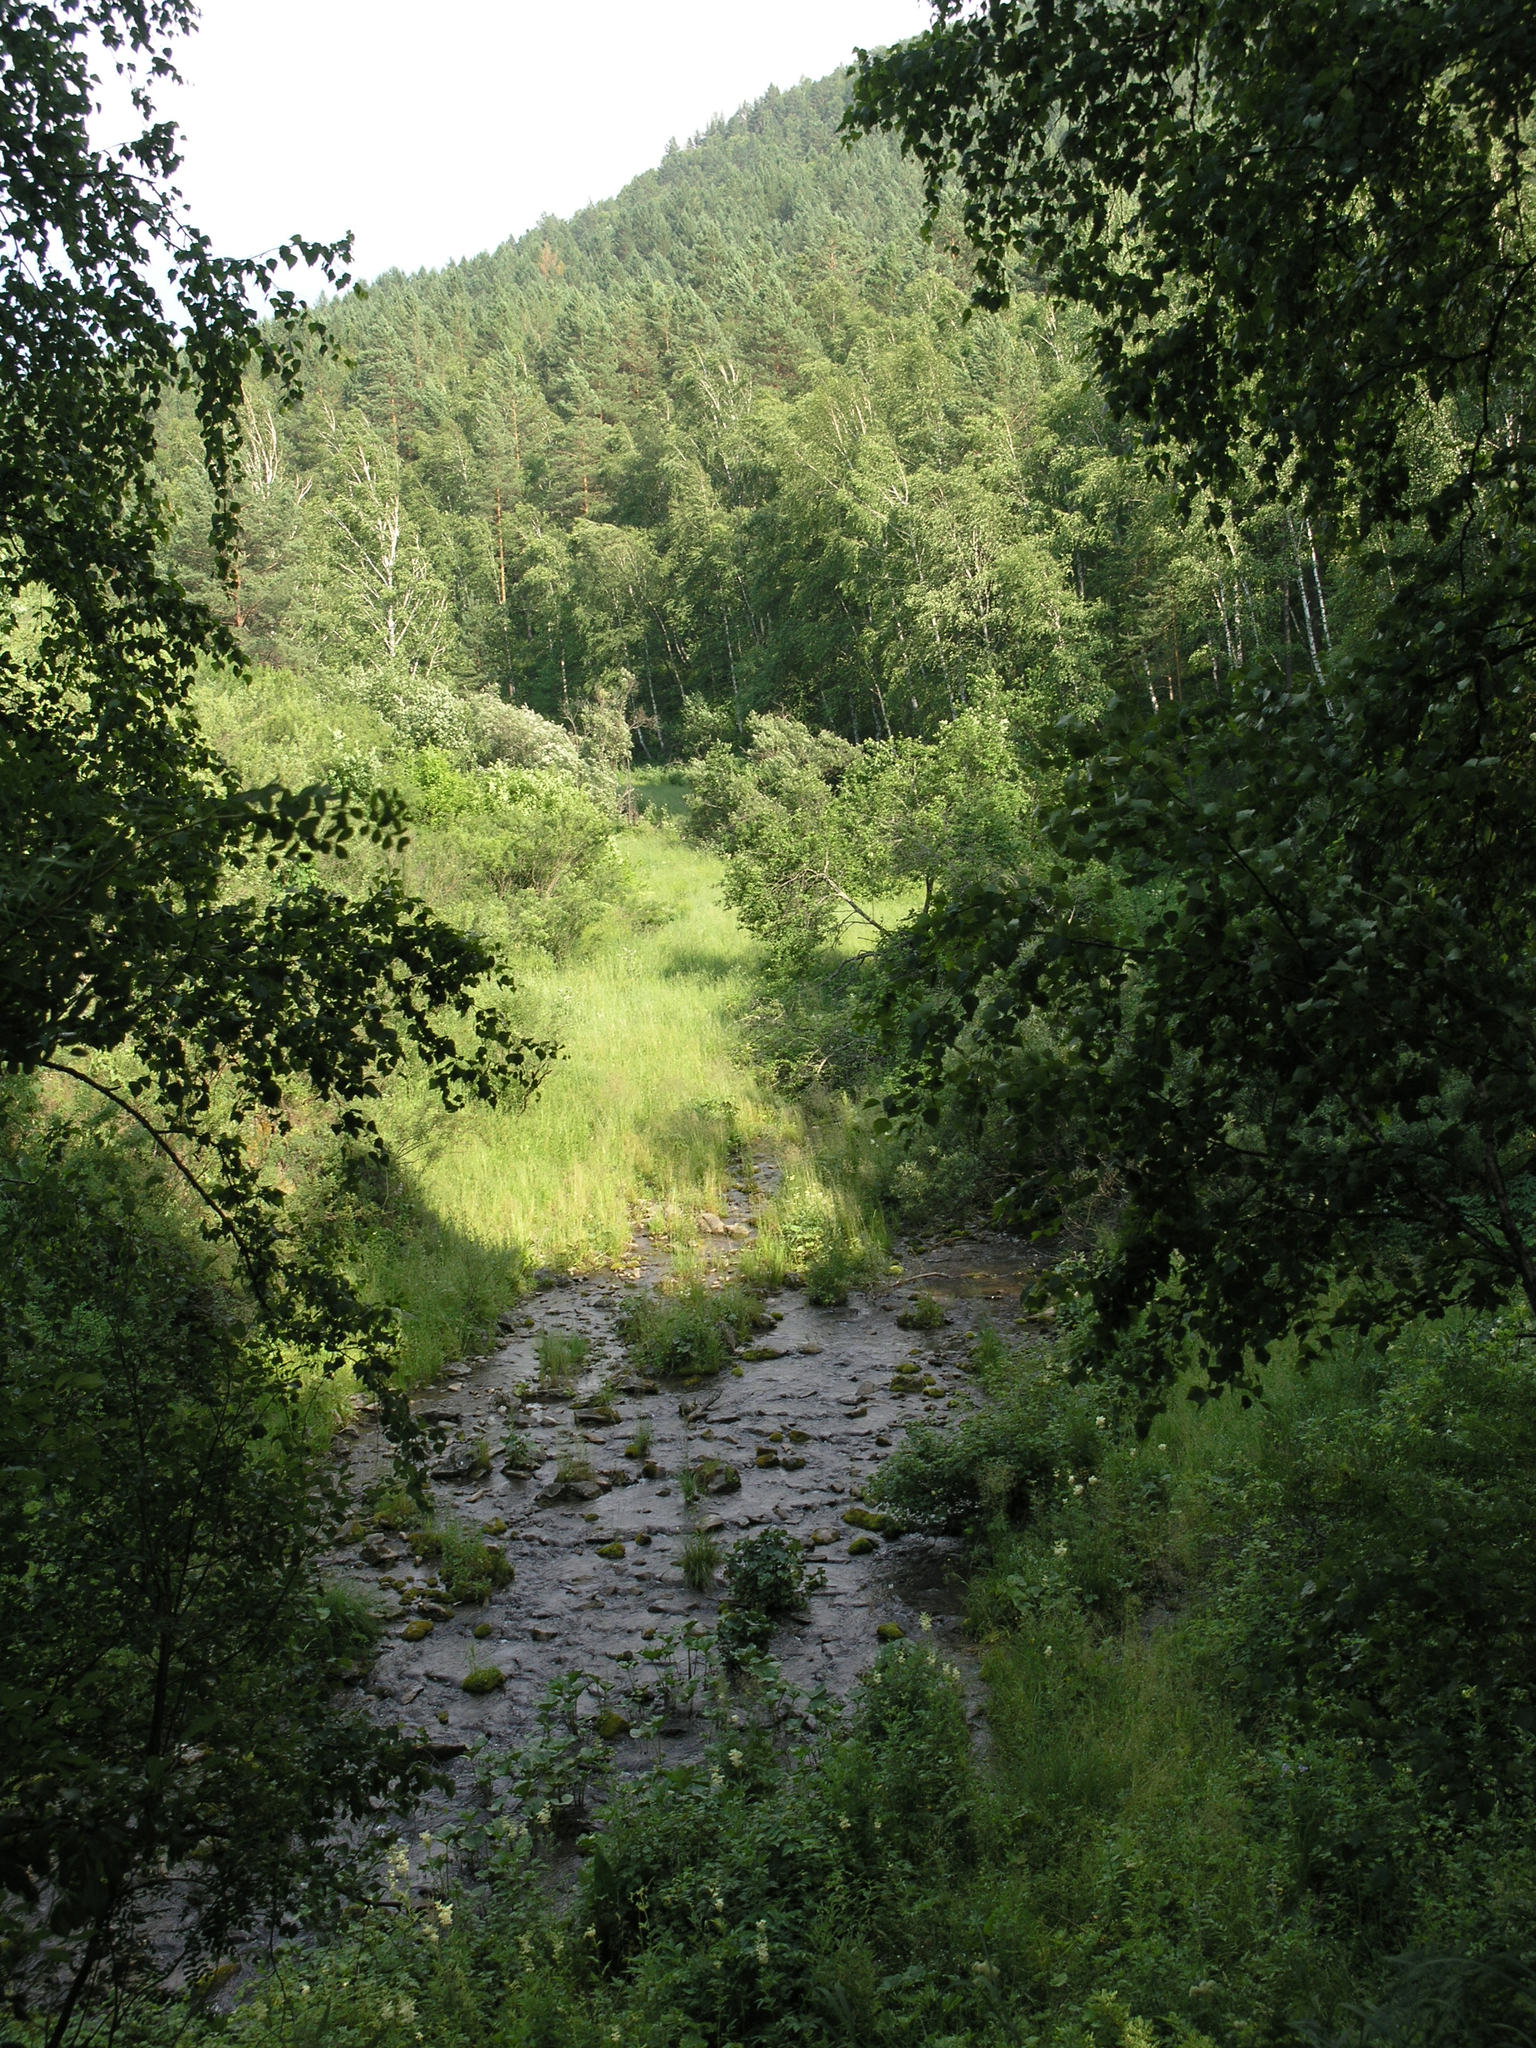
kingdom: Plantae
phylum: Tracheophyta
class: Magnoliopsida
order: Fagales
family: Betulaceae
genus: Betula
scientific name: Betula pendula
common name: Silver birch
